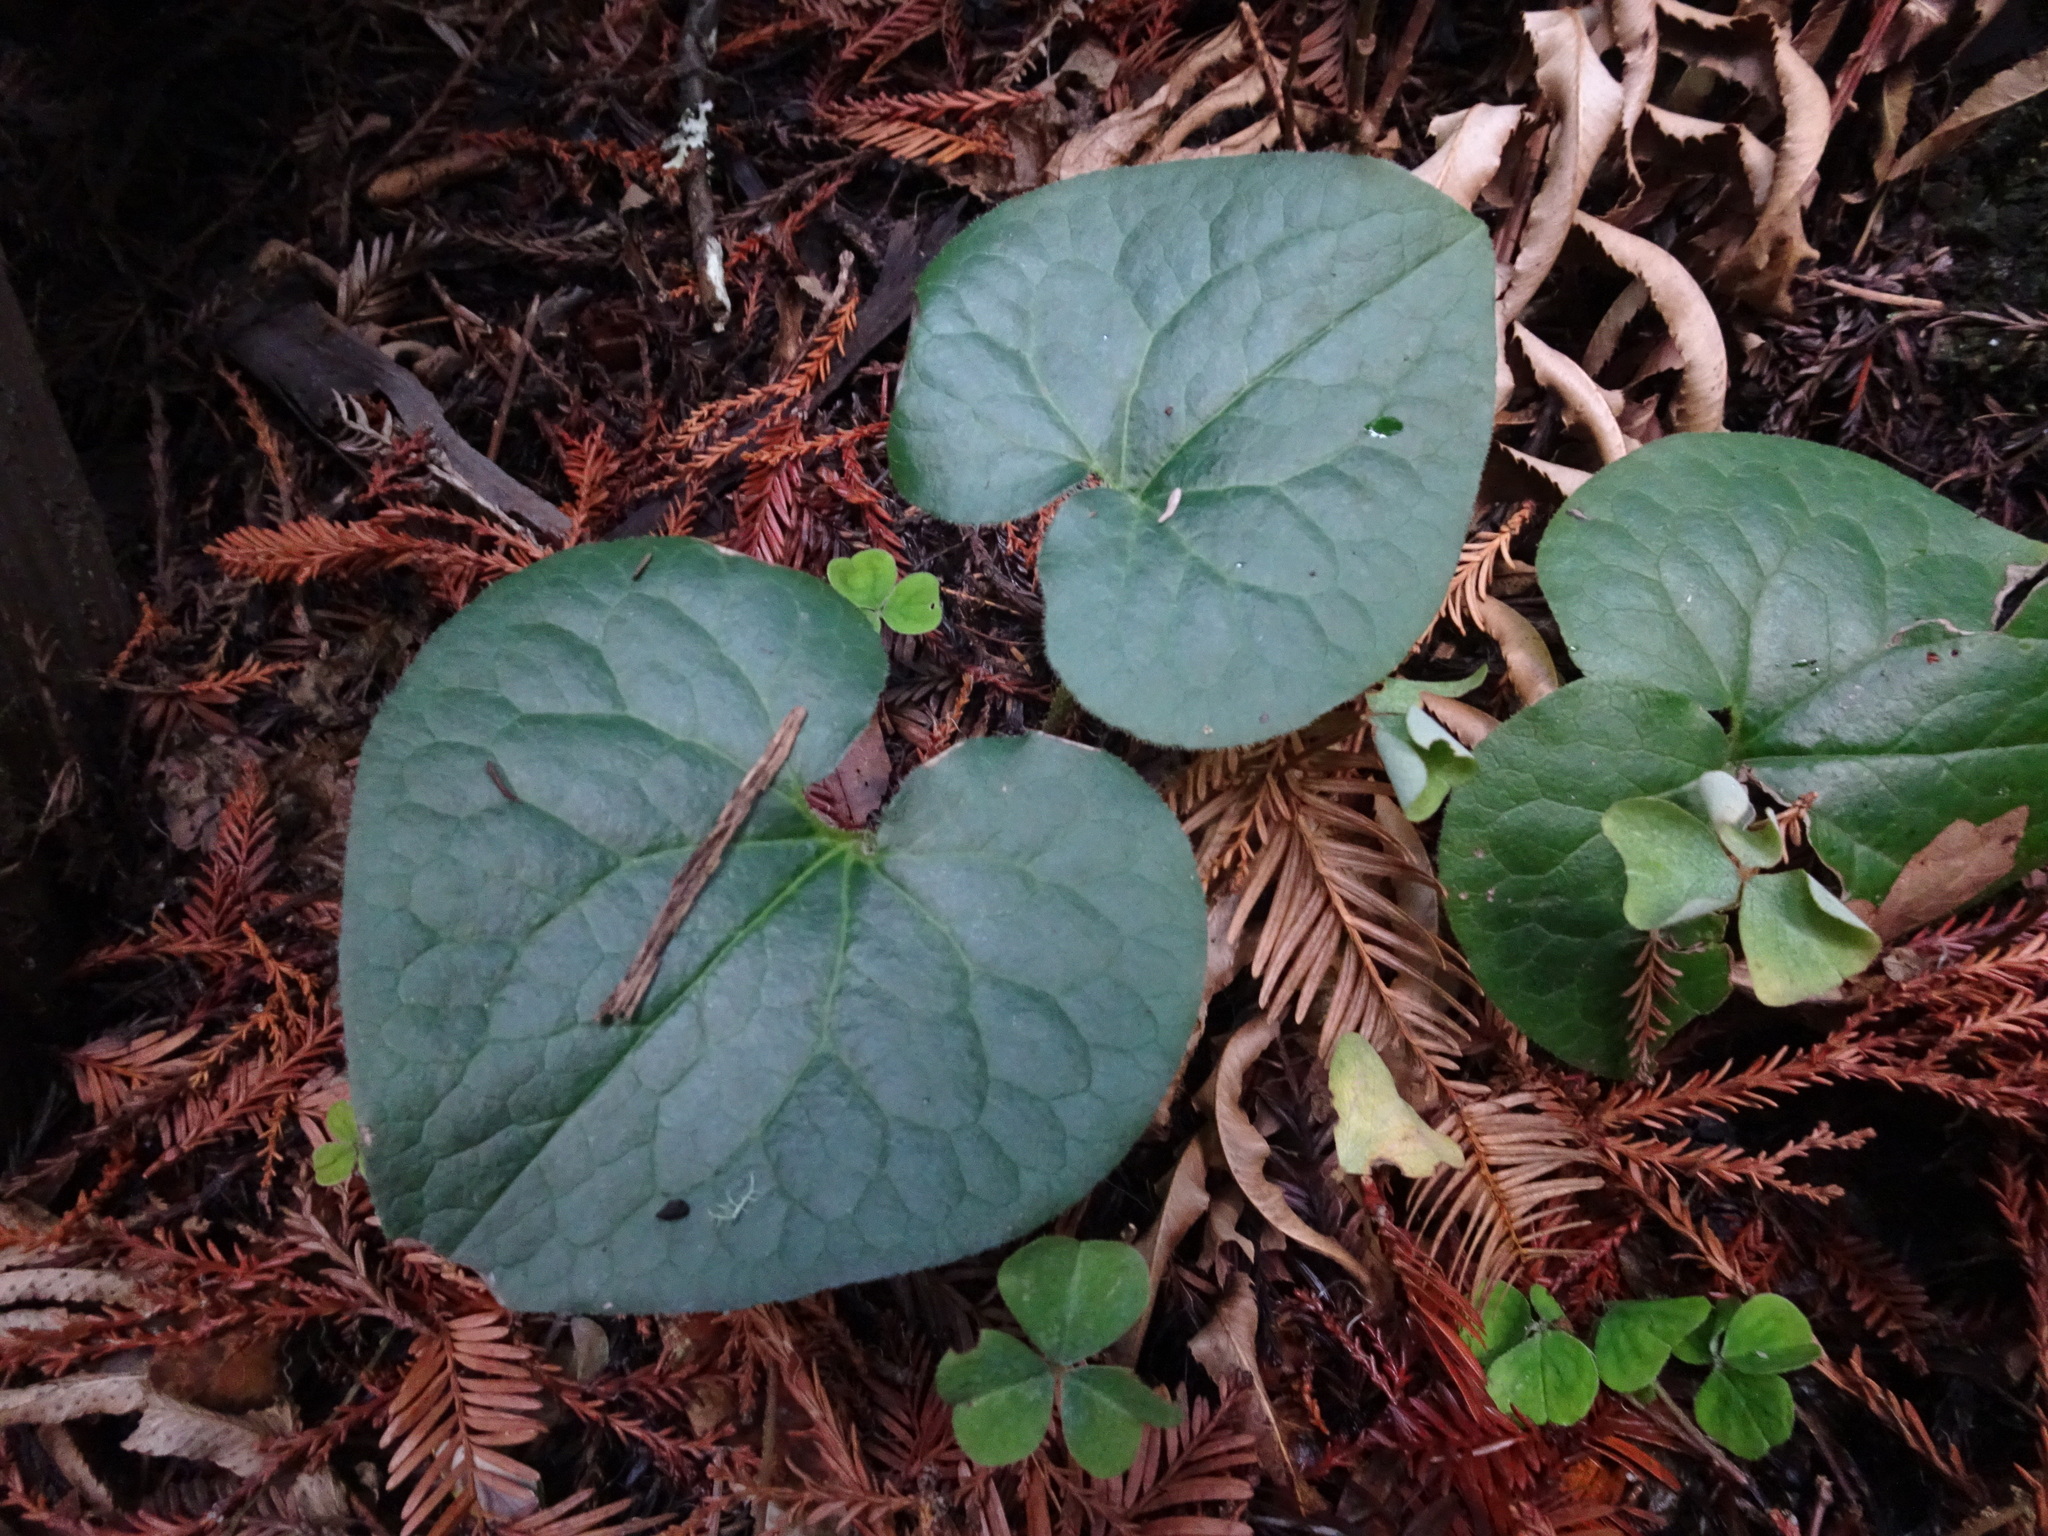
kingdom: Plantae
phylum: Tracheophyta
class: Magnoliopsida
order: Piperales
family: Aristolochiaceae
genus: Asarum
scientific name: Asarum caudatum
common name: Wild ginger
